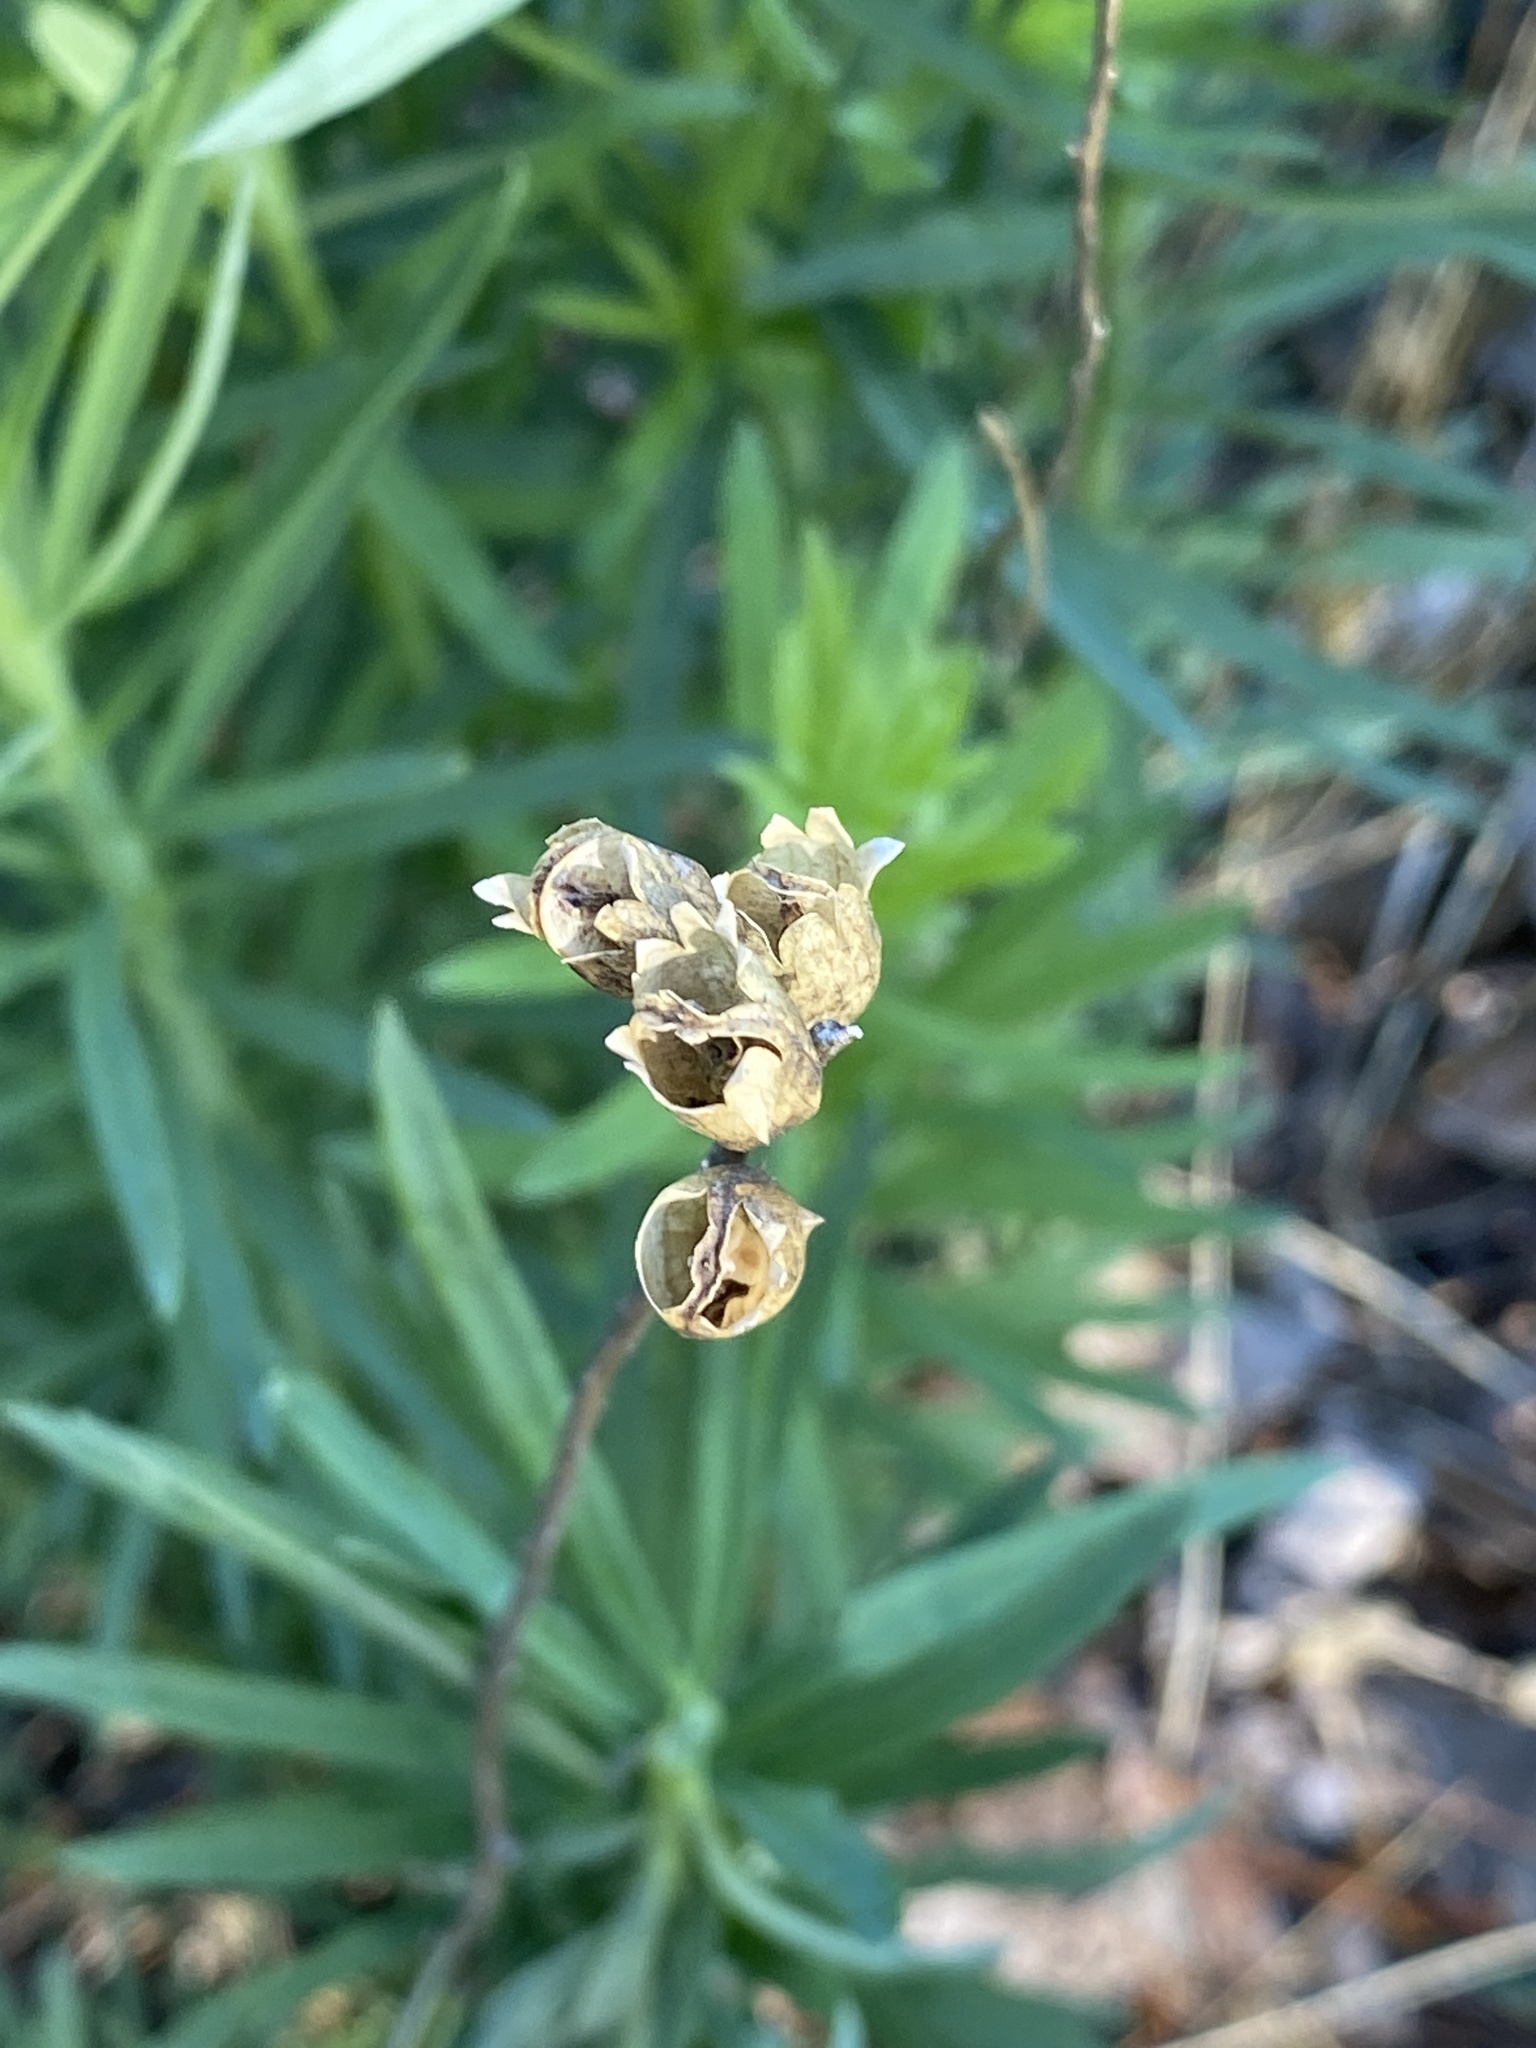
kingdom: Plantae
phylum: Tracheophyta
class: Magnoliopsida
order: Lamiales
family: Plantaginaceae
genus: Linaria
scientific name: Linaria vulgaris
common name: Butter and eggs
